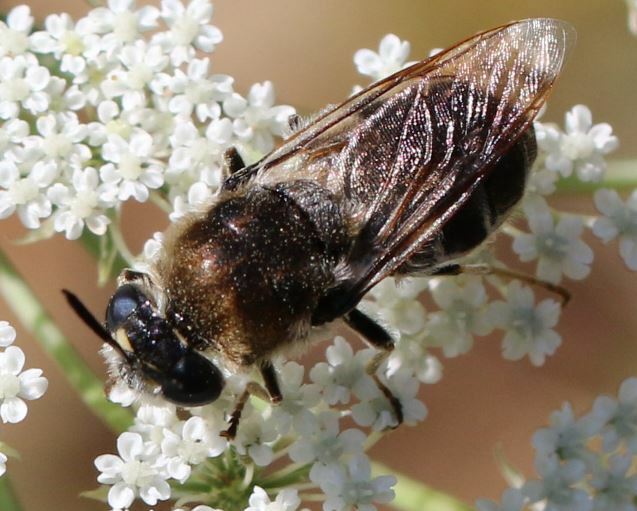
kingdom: Animalia
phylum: Arthropoda
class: Insecta
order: Diptera
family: Stratiomyidae
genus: Stratiomys
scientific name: Stratiomys longicornis
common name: Long-horned general
